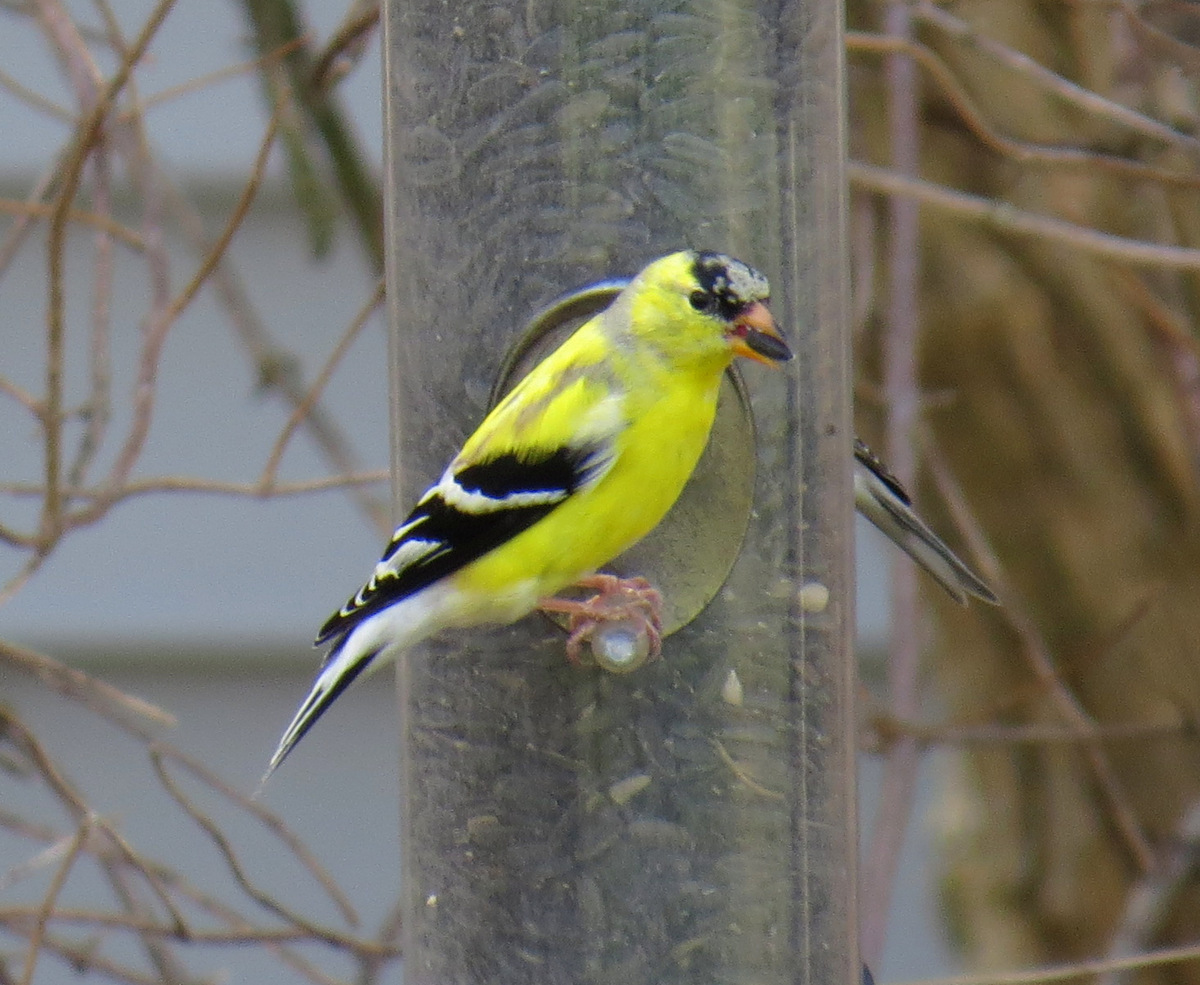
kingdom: Animalia
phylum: Chordata
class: Aves
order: Passeriformes
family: Fringillidae
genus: Spinus
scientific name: Spinus tristis
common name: American goldfinch
